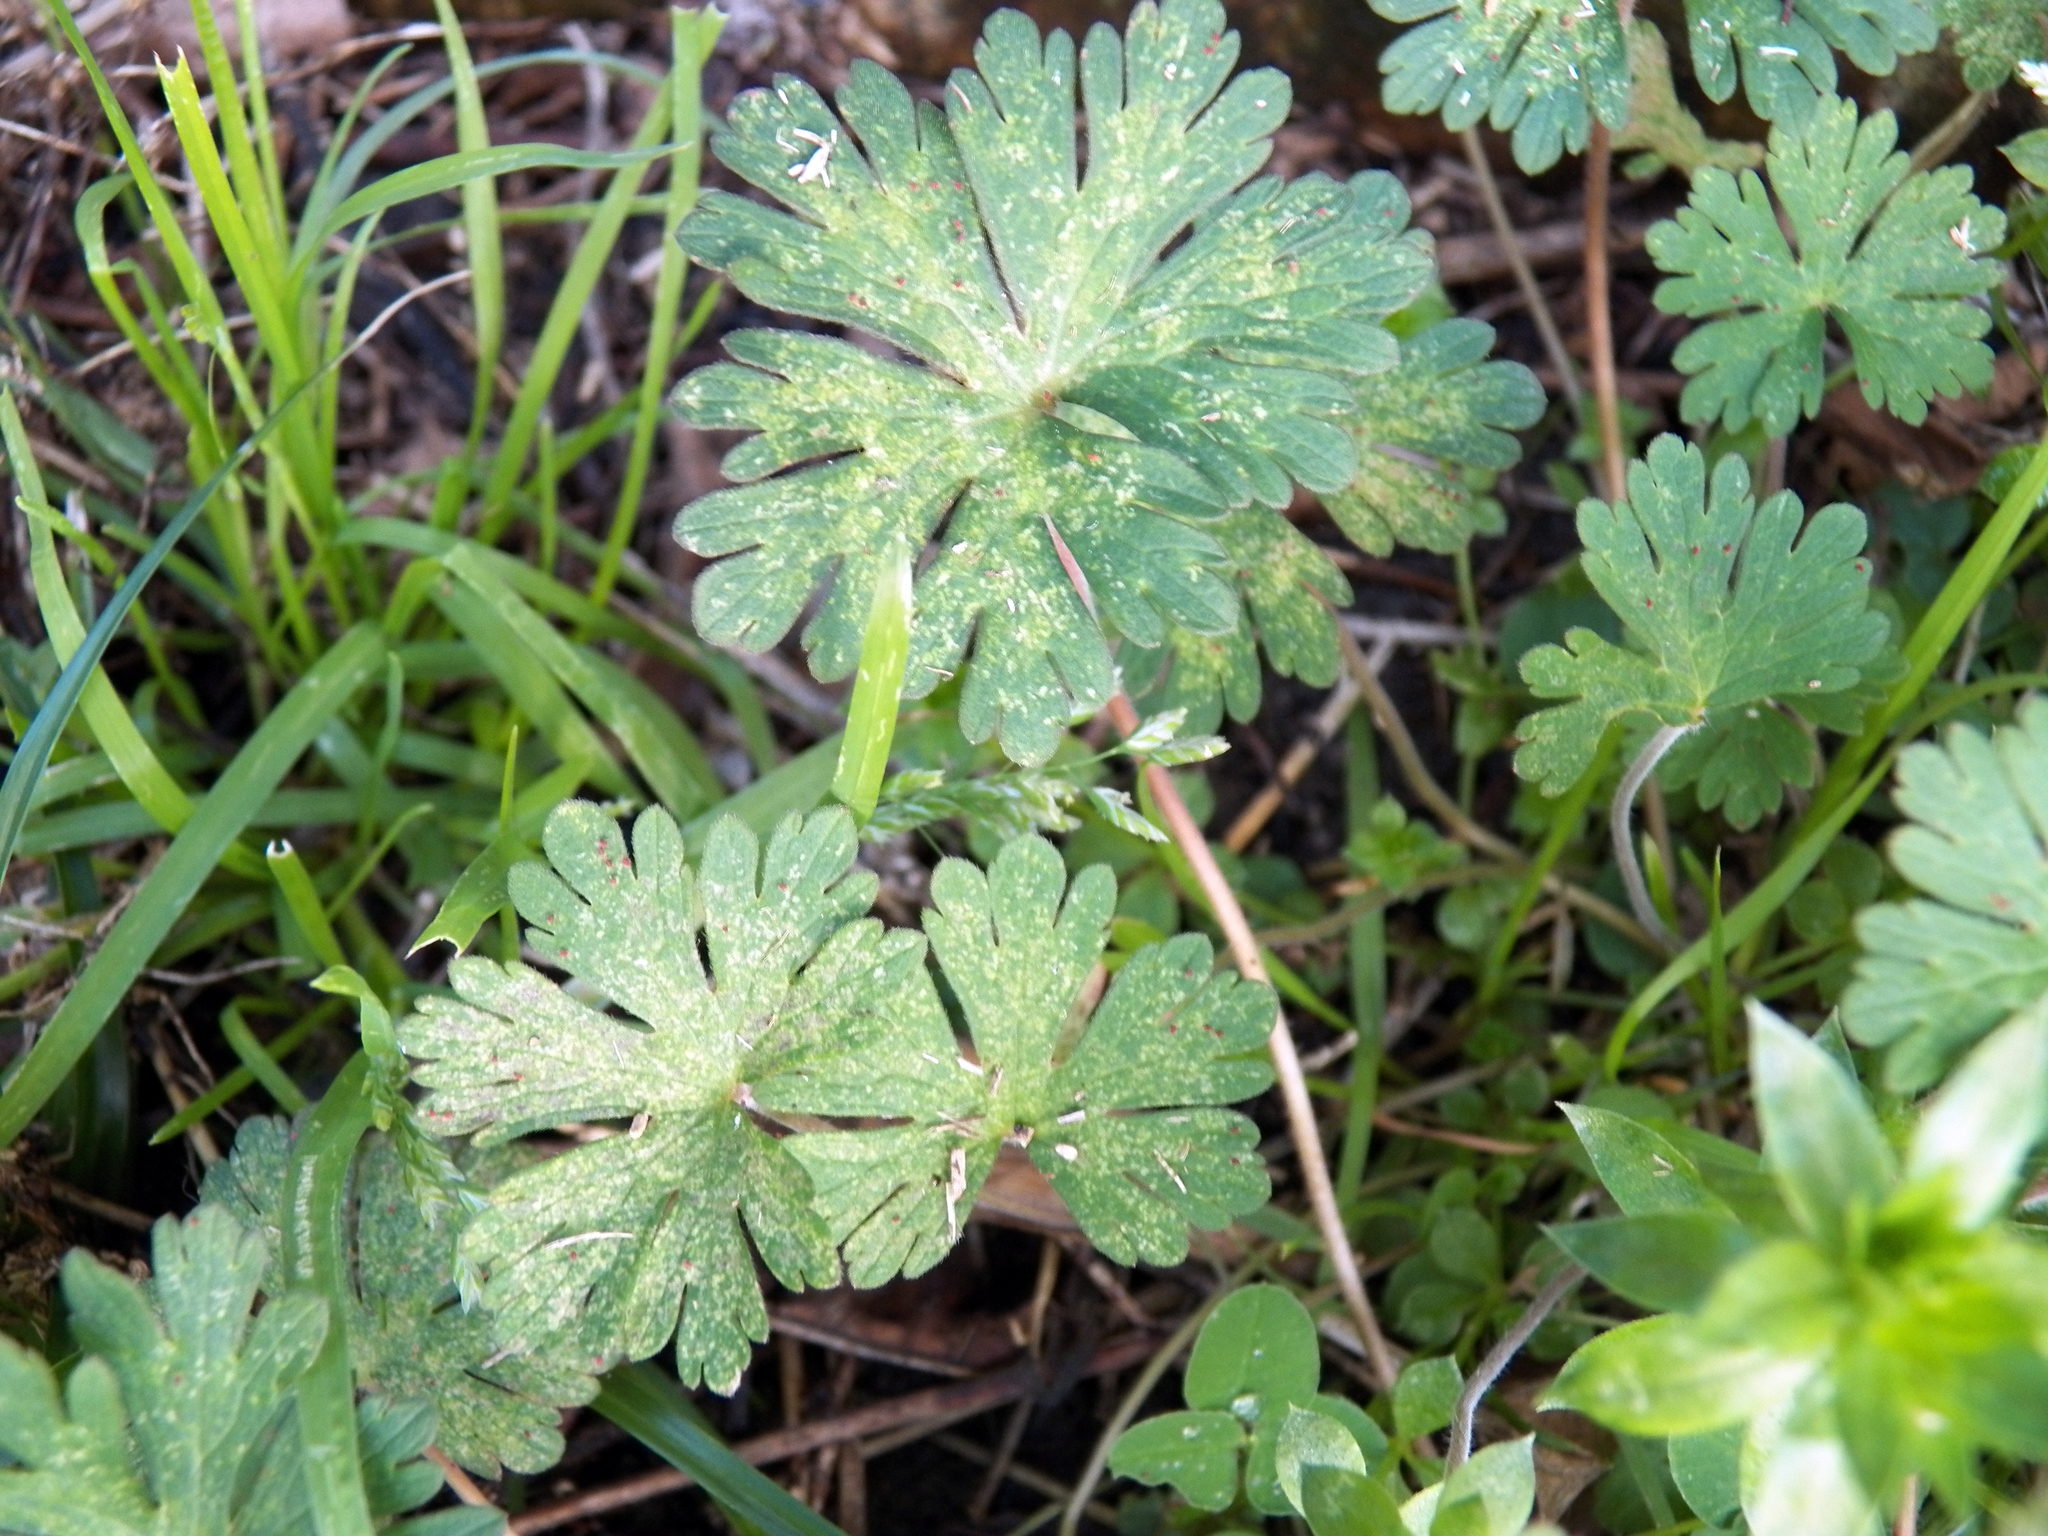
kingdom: Plantae
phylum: Tracheophyta
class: Magnoliopsida
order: Geraniales
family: Geraniaceae
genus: Geranium
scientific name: Geranium carolinianum
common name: Carolina crane's-bill
